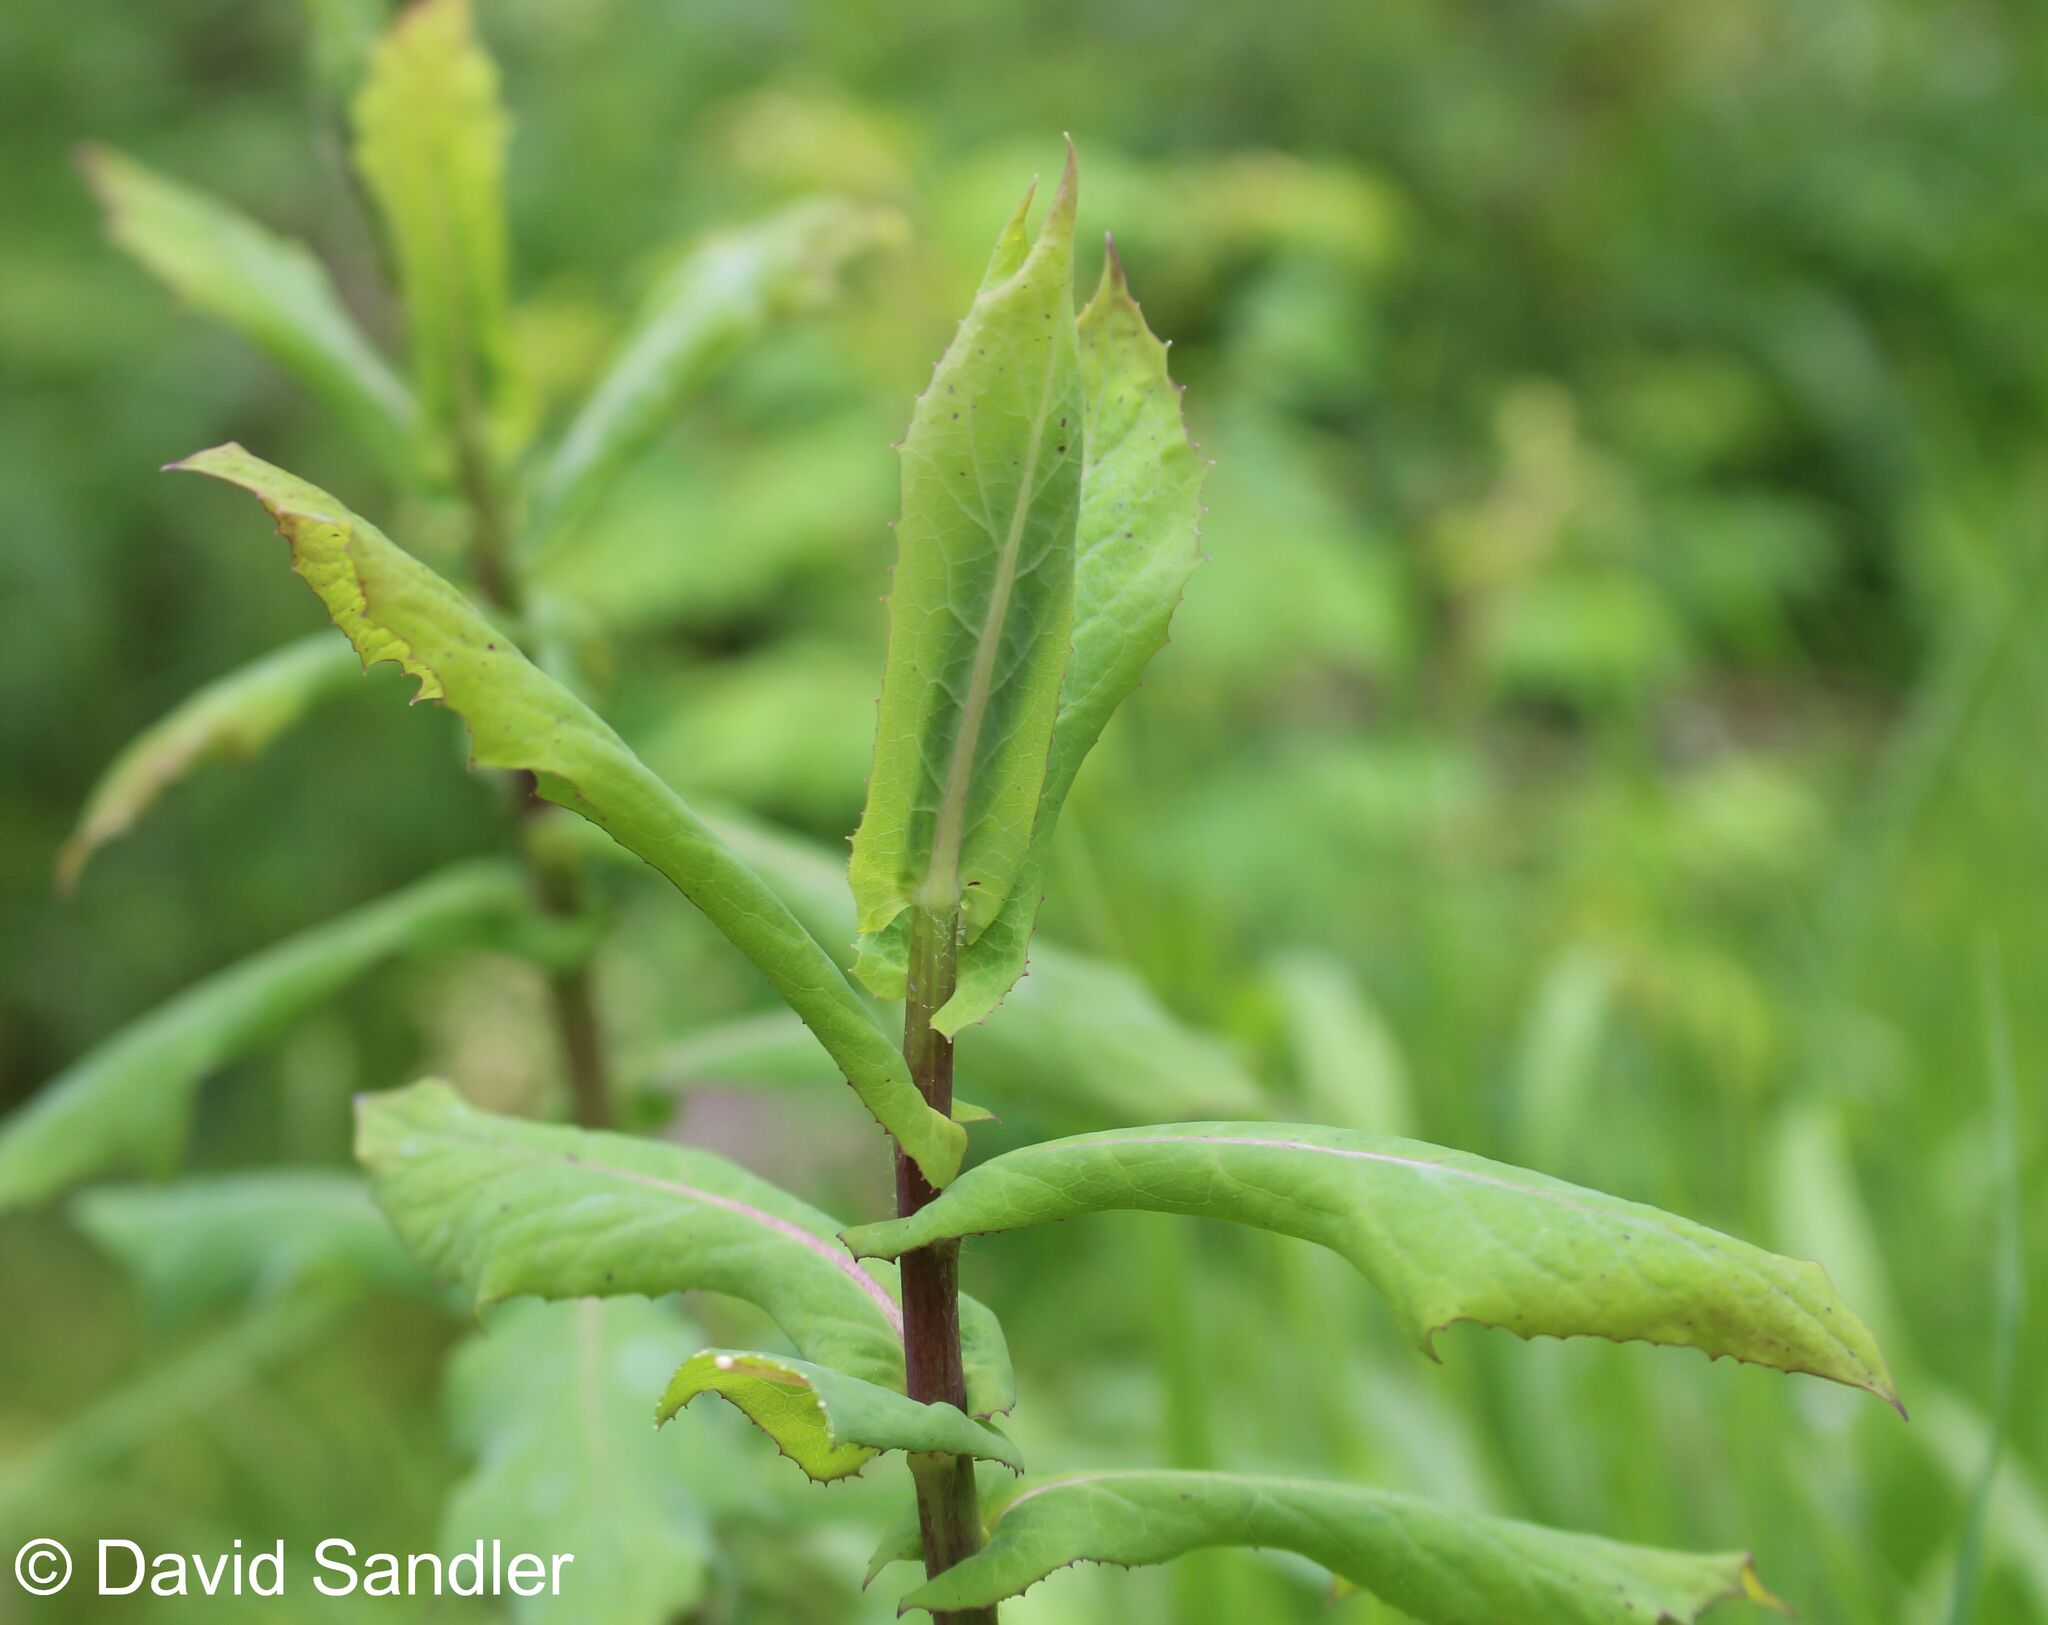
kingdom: Plantae
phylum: Tracheophyta
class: Magnoliopsida
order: Asterales
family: Asteraceae
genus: Prenanthes
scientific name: Prenanthes purpurea
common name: Purple lettuce
